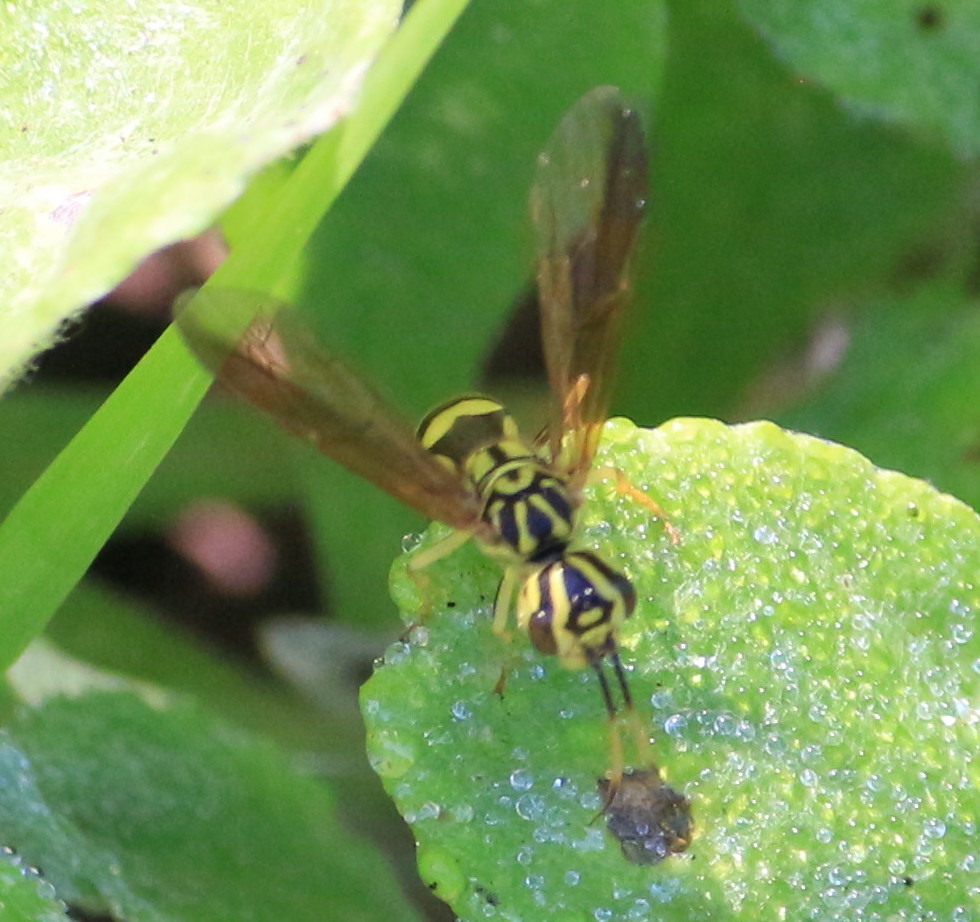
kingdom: Animalia
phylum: Arthropoda
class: Insecta
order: Hymenoptera
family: Trigonalidae
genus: Trigonalys
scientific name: Trigonalys maculifrons
